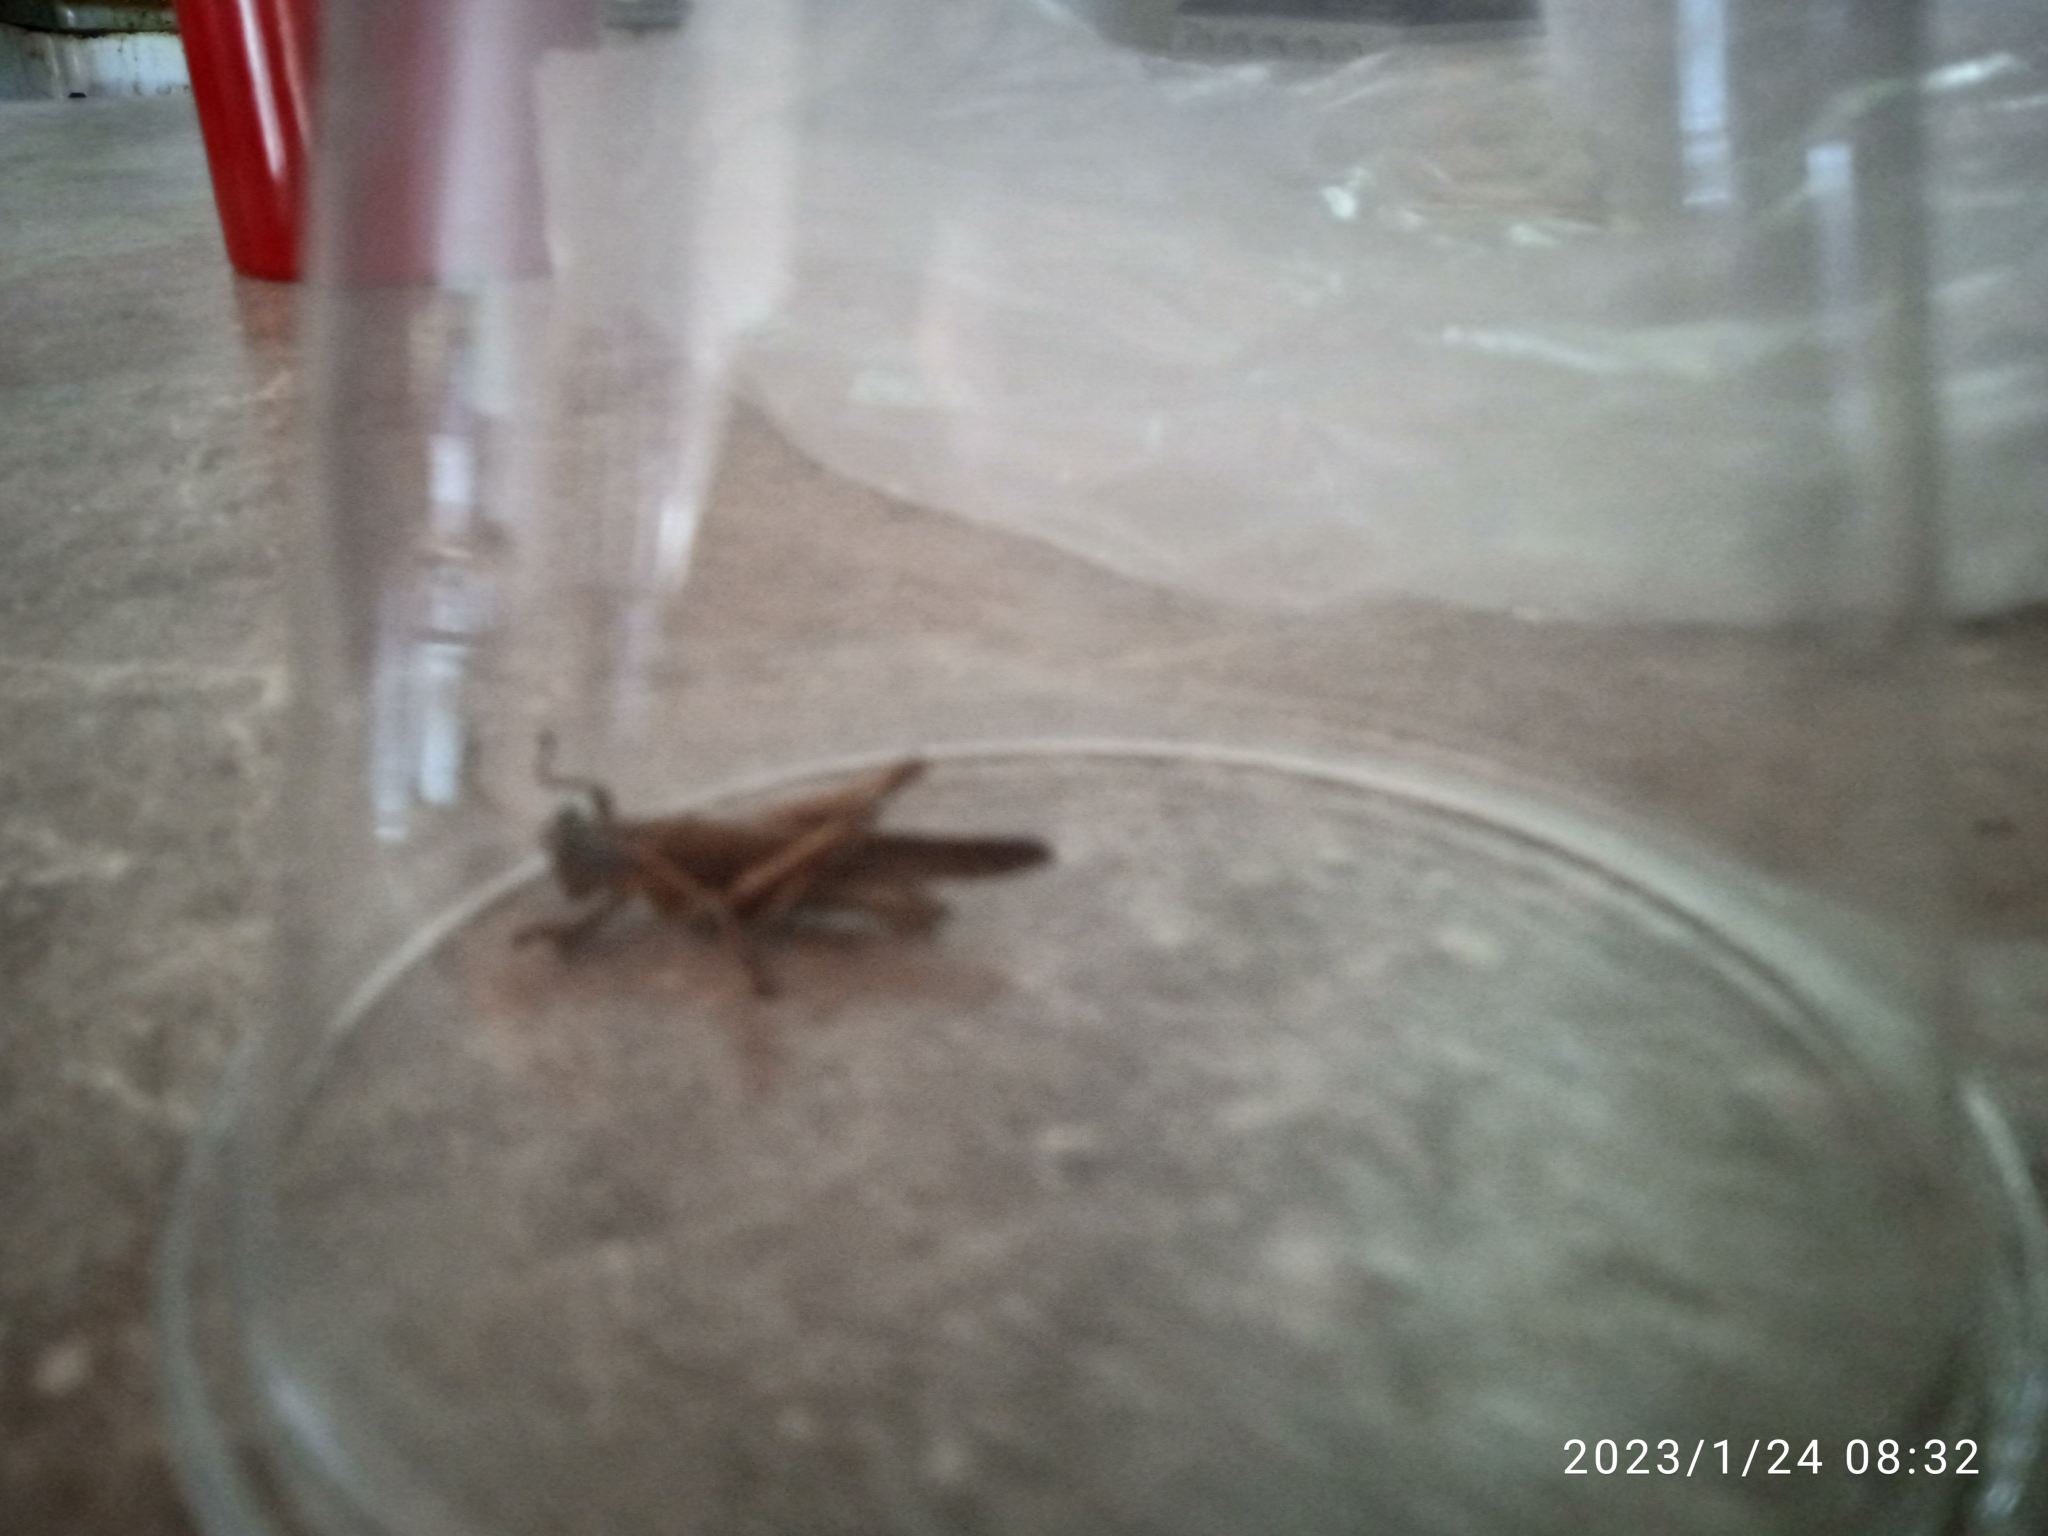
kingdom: Animalia
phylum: Arthropoda
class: Insecta
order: Orthoptera
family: Acrididae
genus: Abracris
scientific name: Abracris flavolineata
